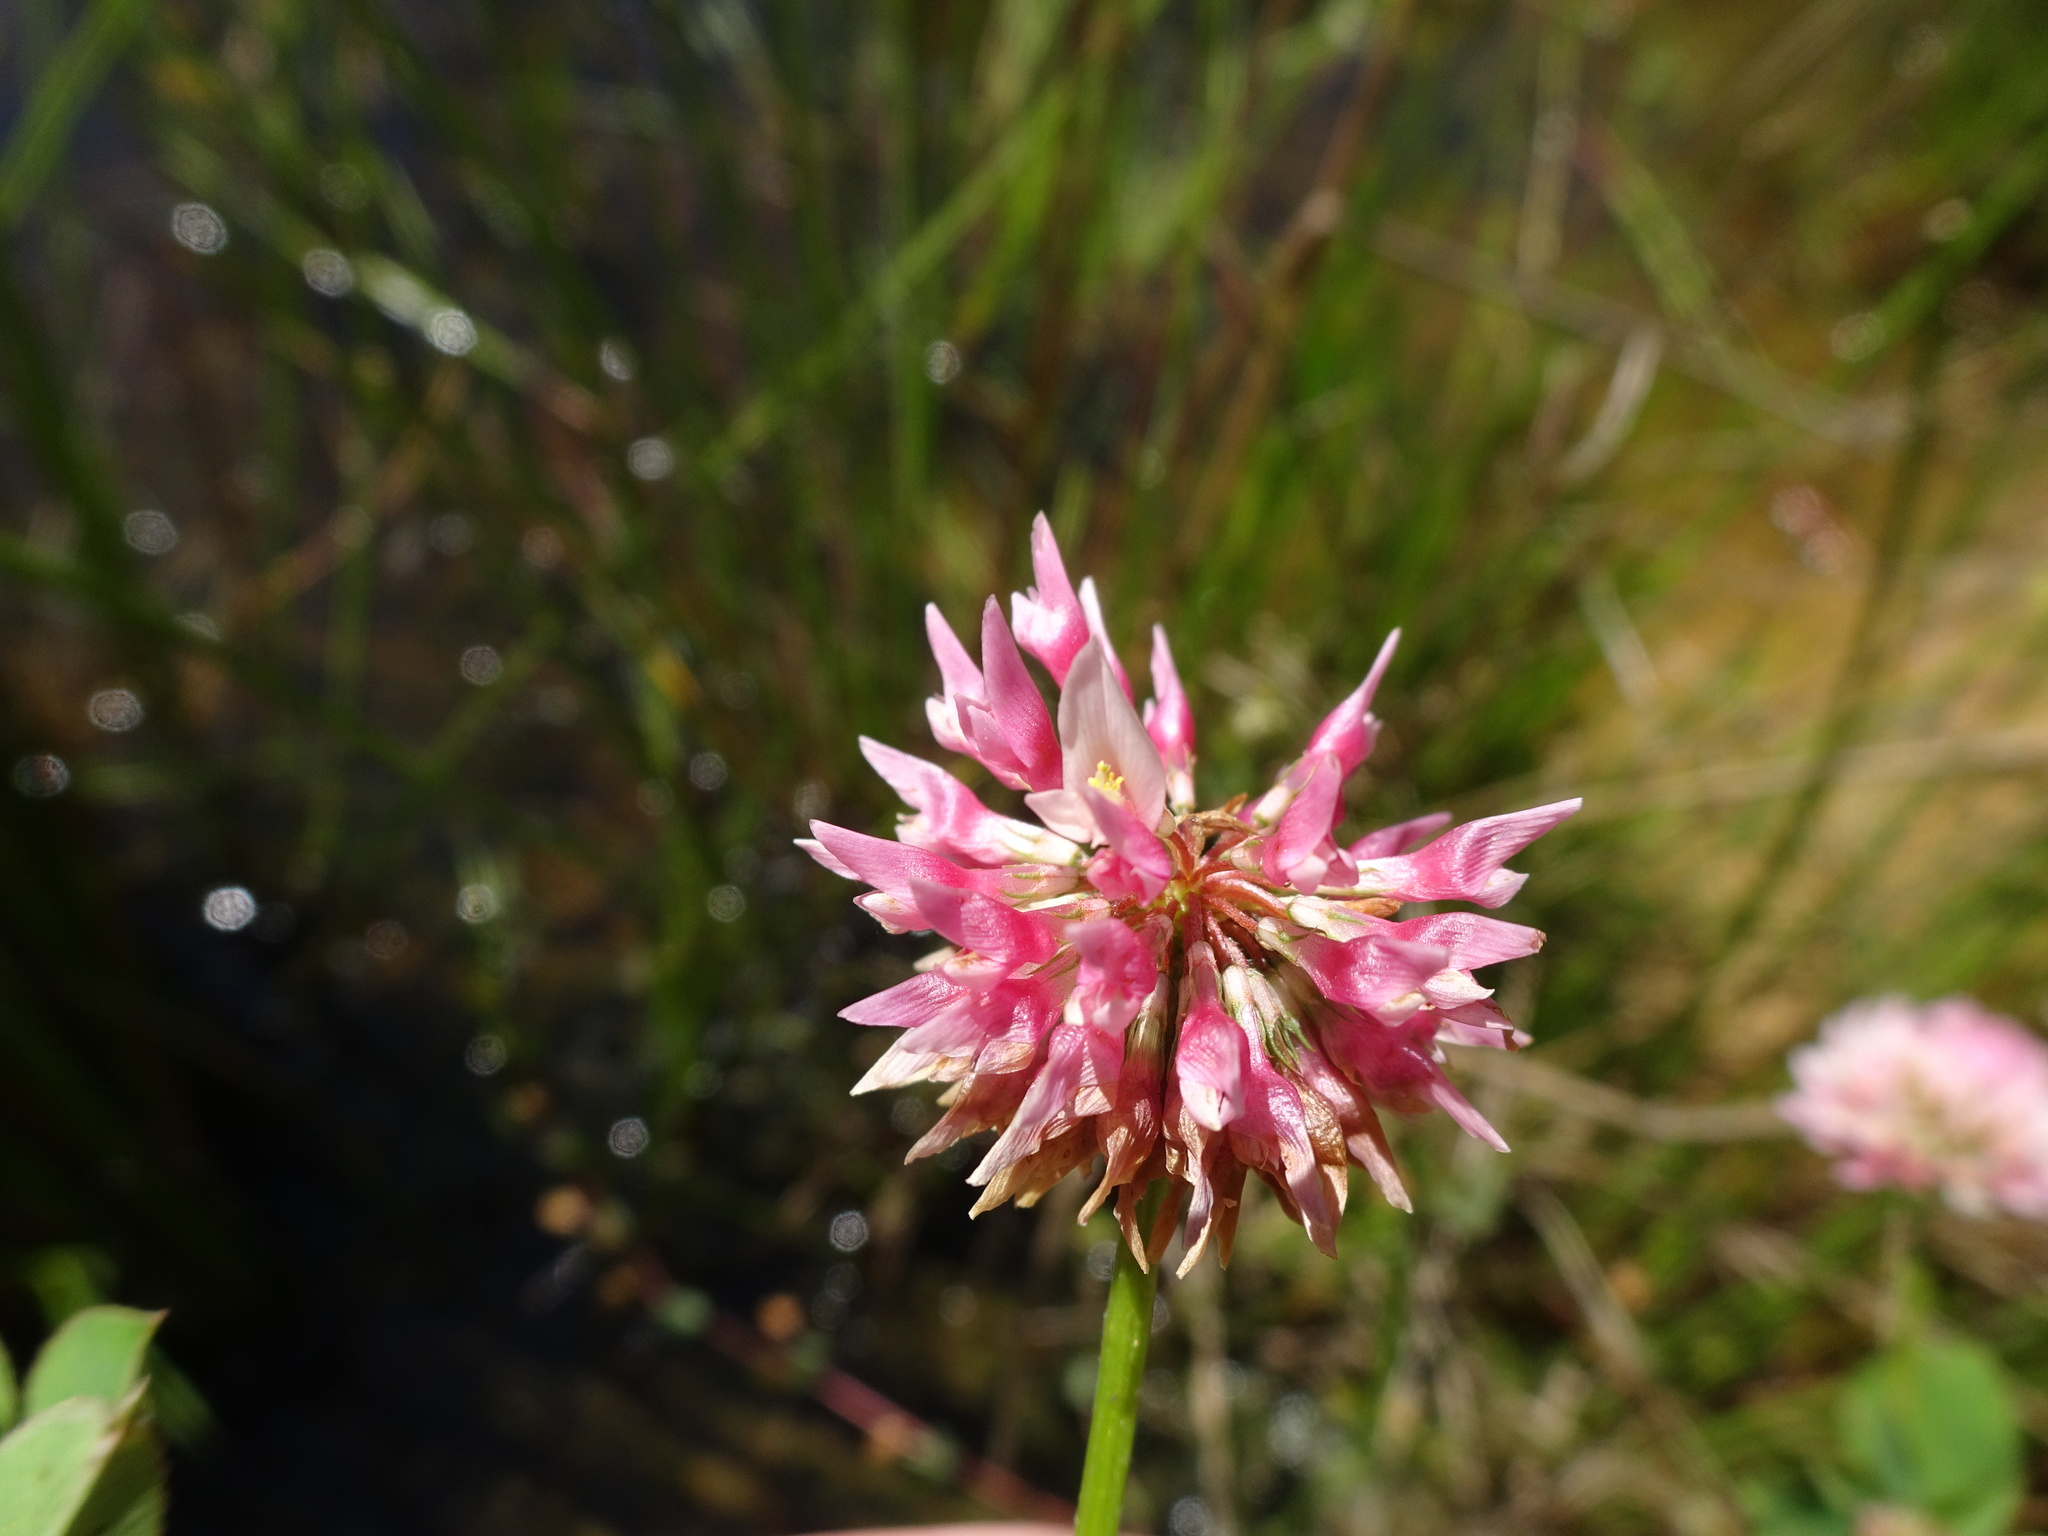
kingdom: Plantae
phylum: Tracheophyta
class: Magnoliopsida
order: Fabales
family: Fabaceae
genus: Trifolium
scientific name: Trifolium hybridum
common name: Alsike clover
